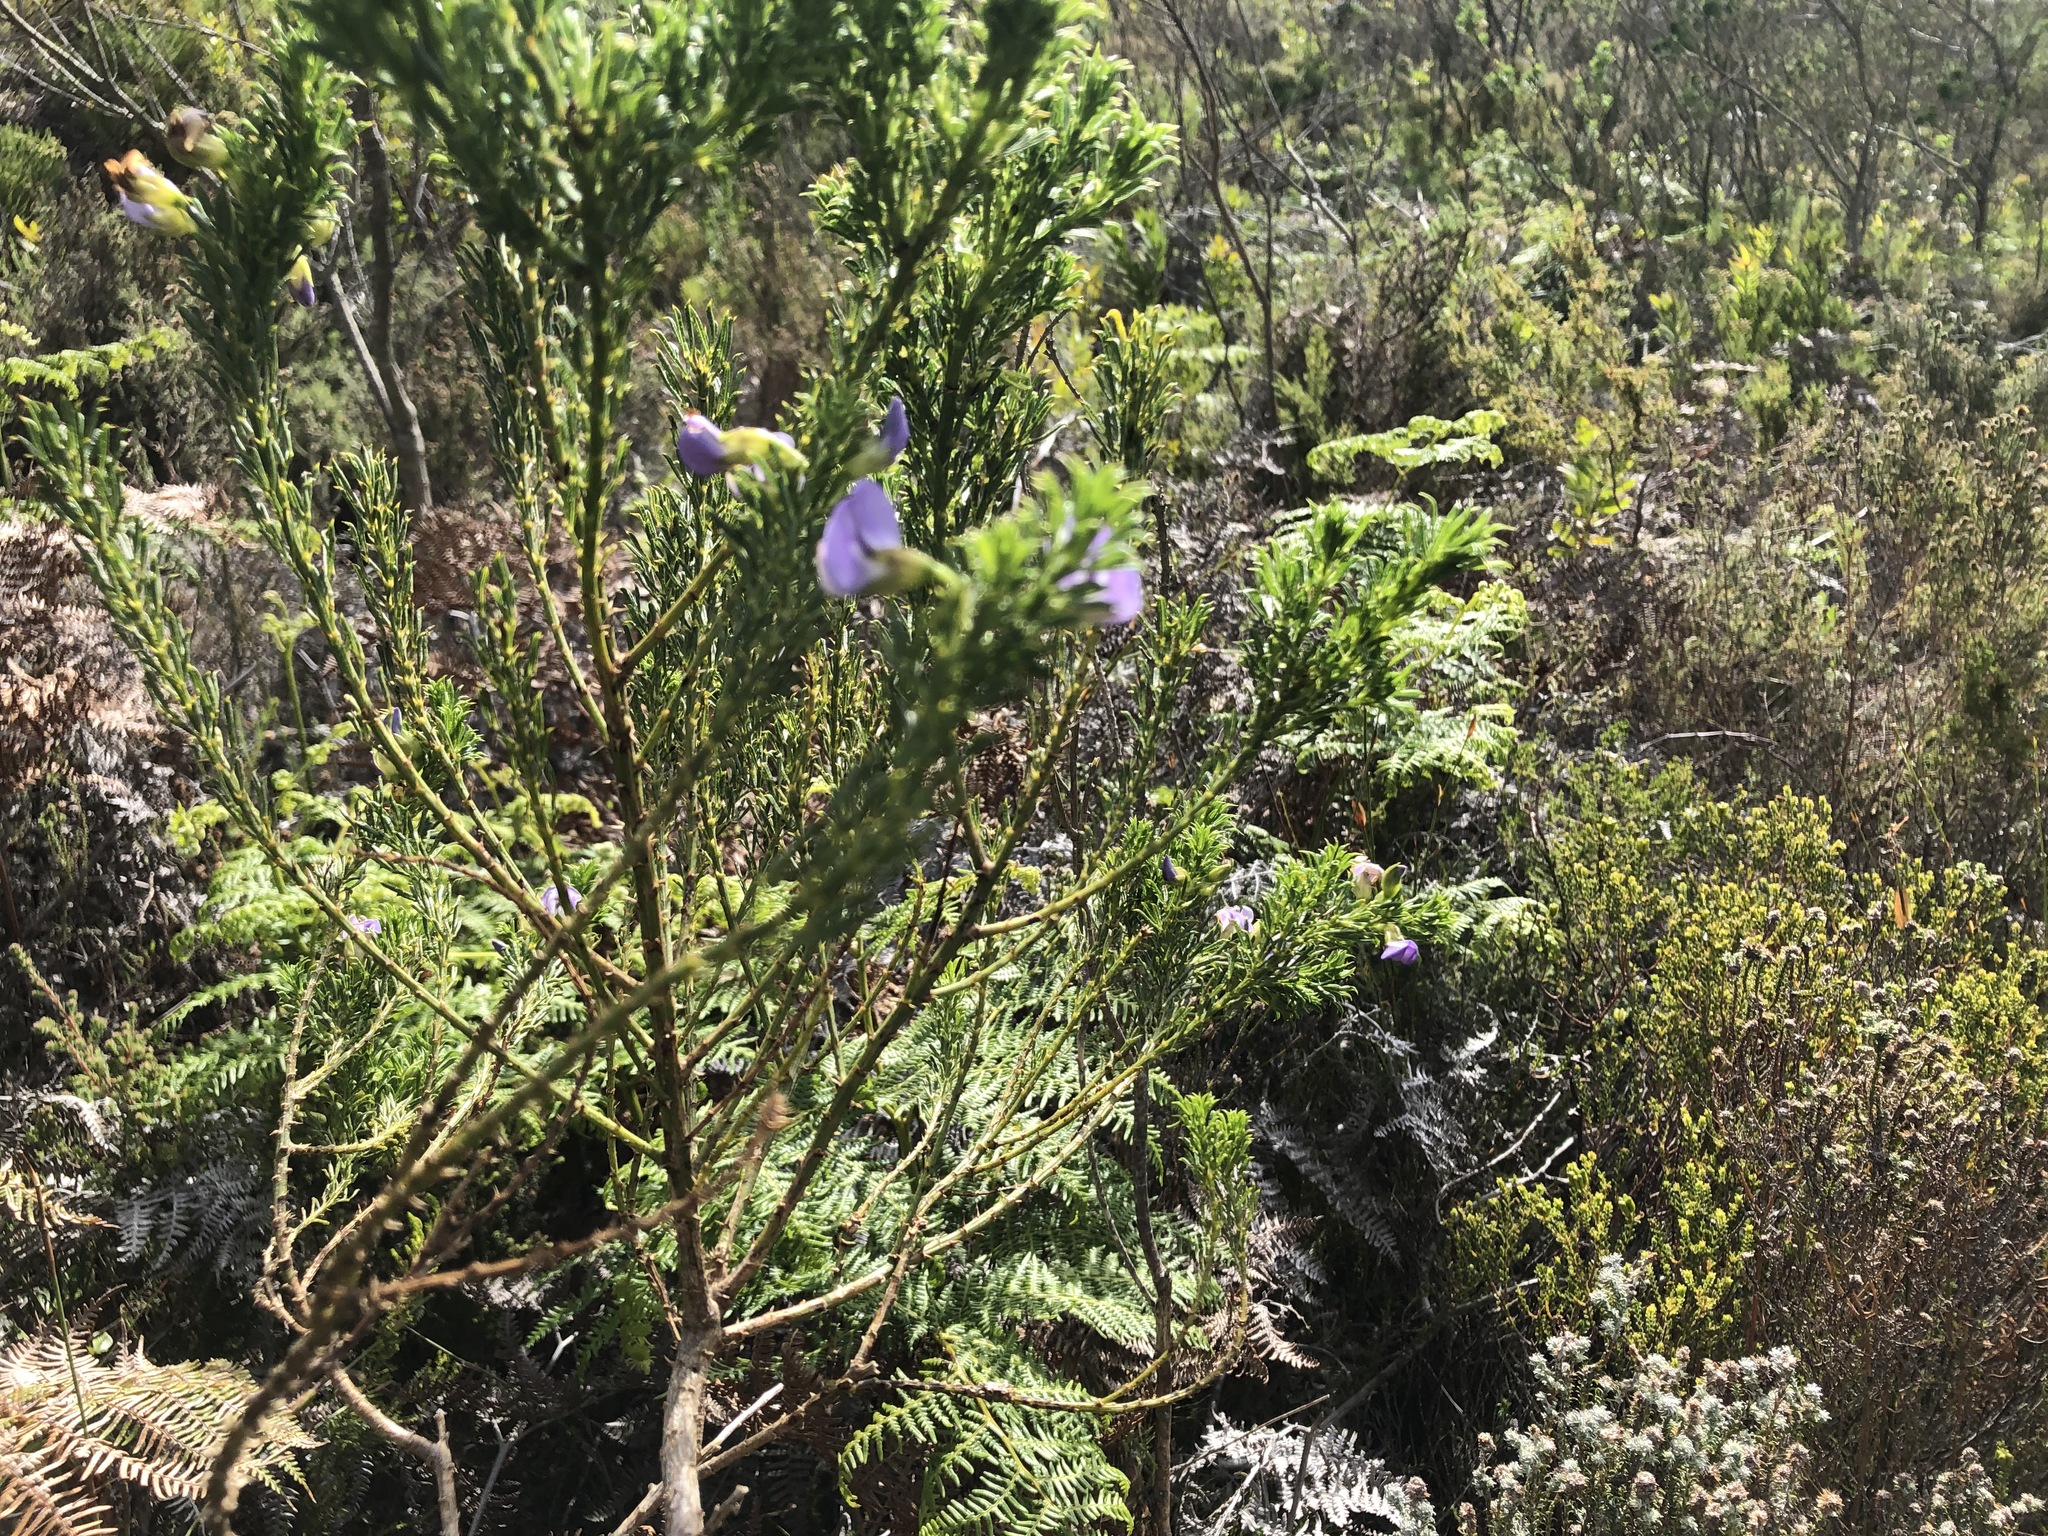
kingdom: Plantae
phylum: Tracheophyta
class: Magnoliopsida
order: Fabales
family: Fabaceae
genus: Psoralea
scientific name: Psoralea pinnata
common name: African scurfpea
